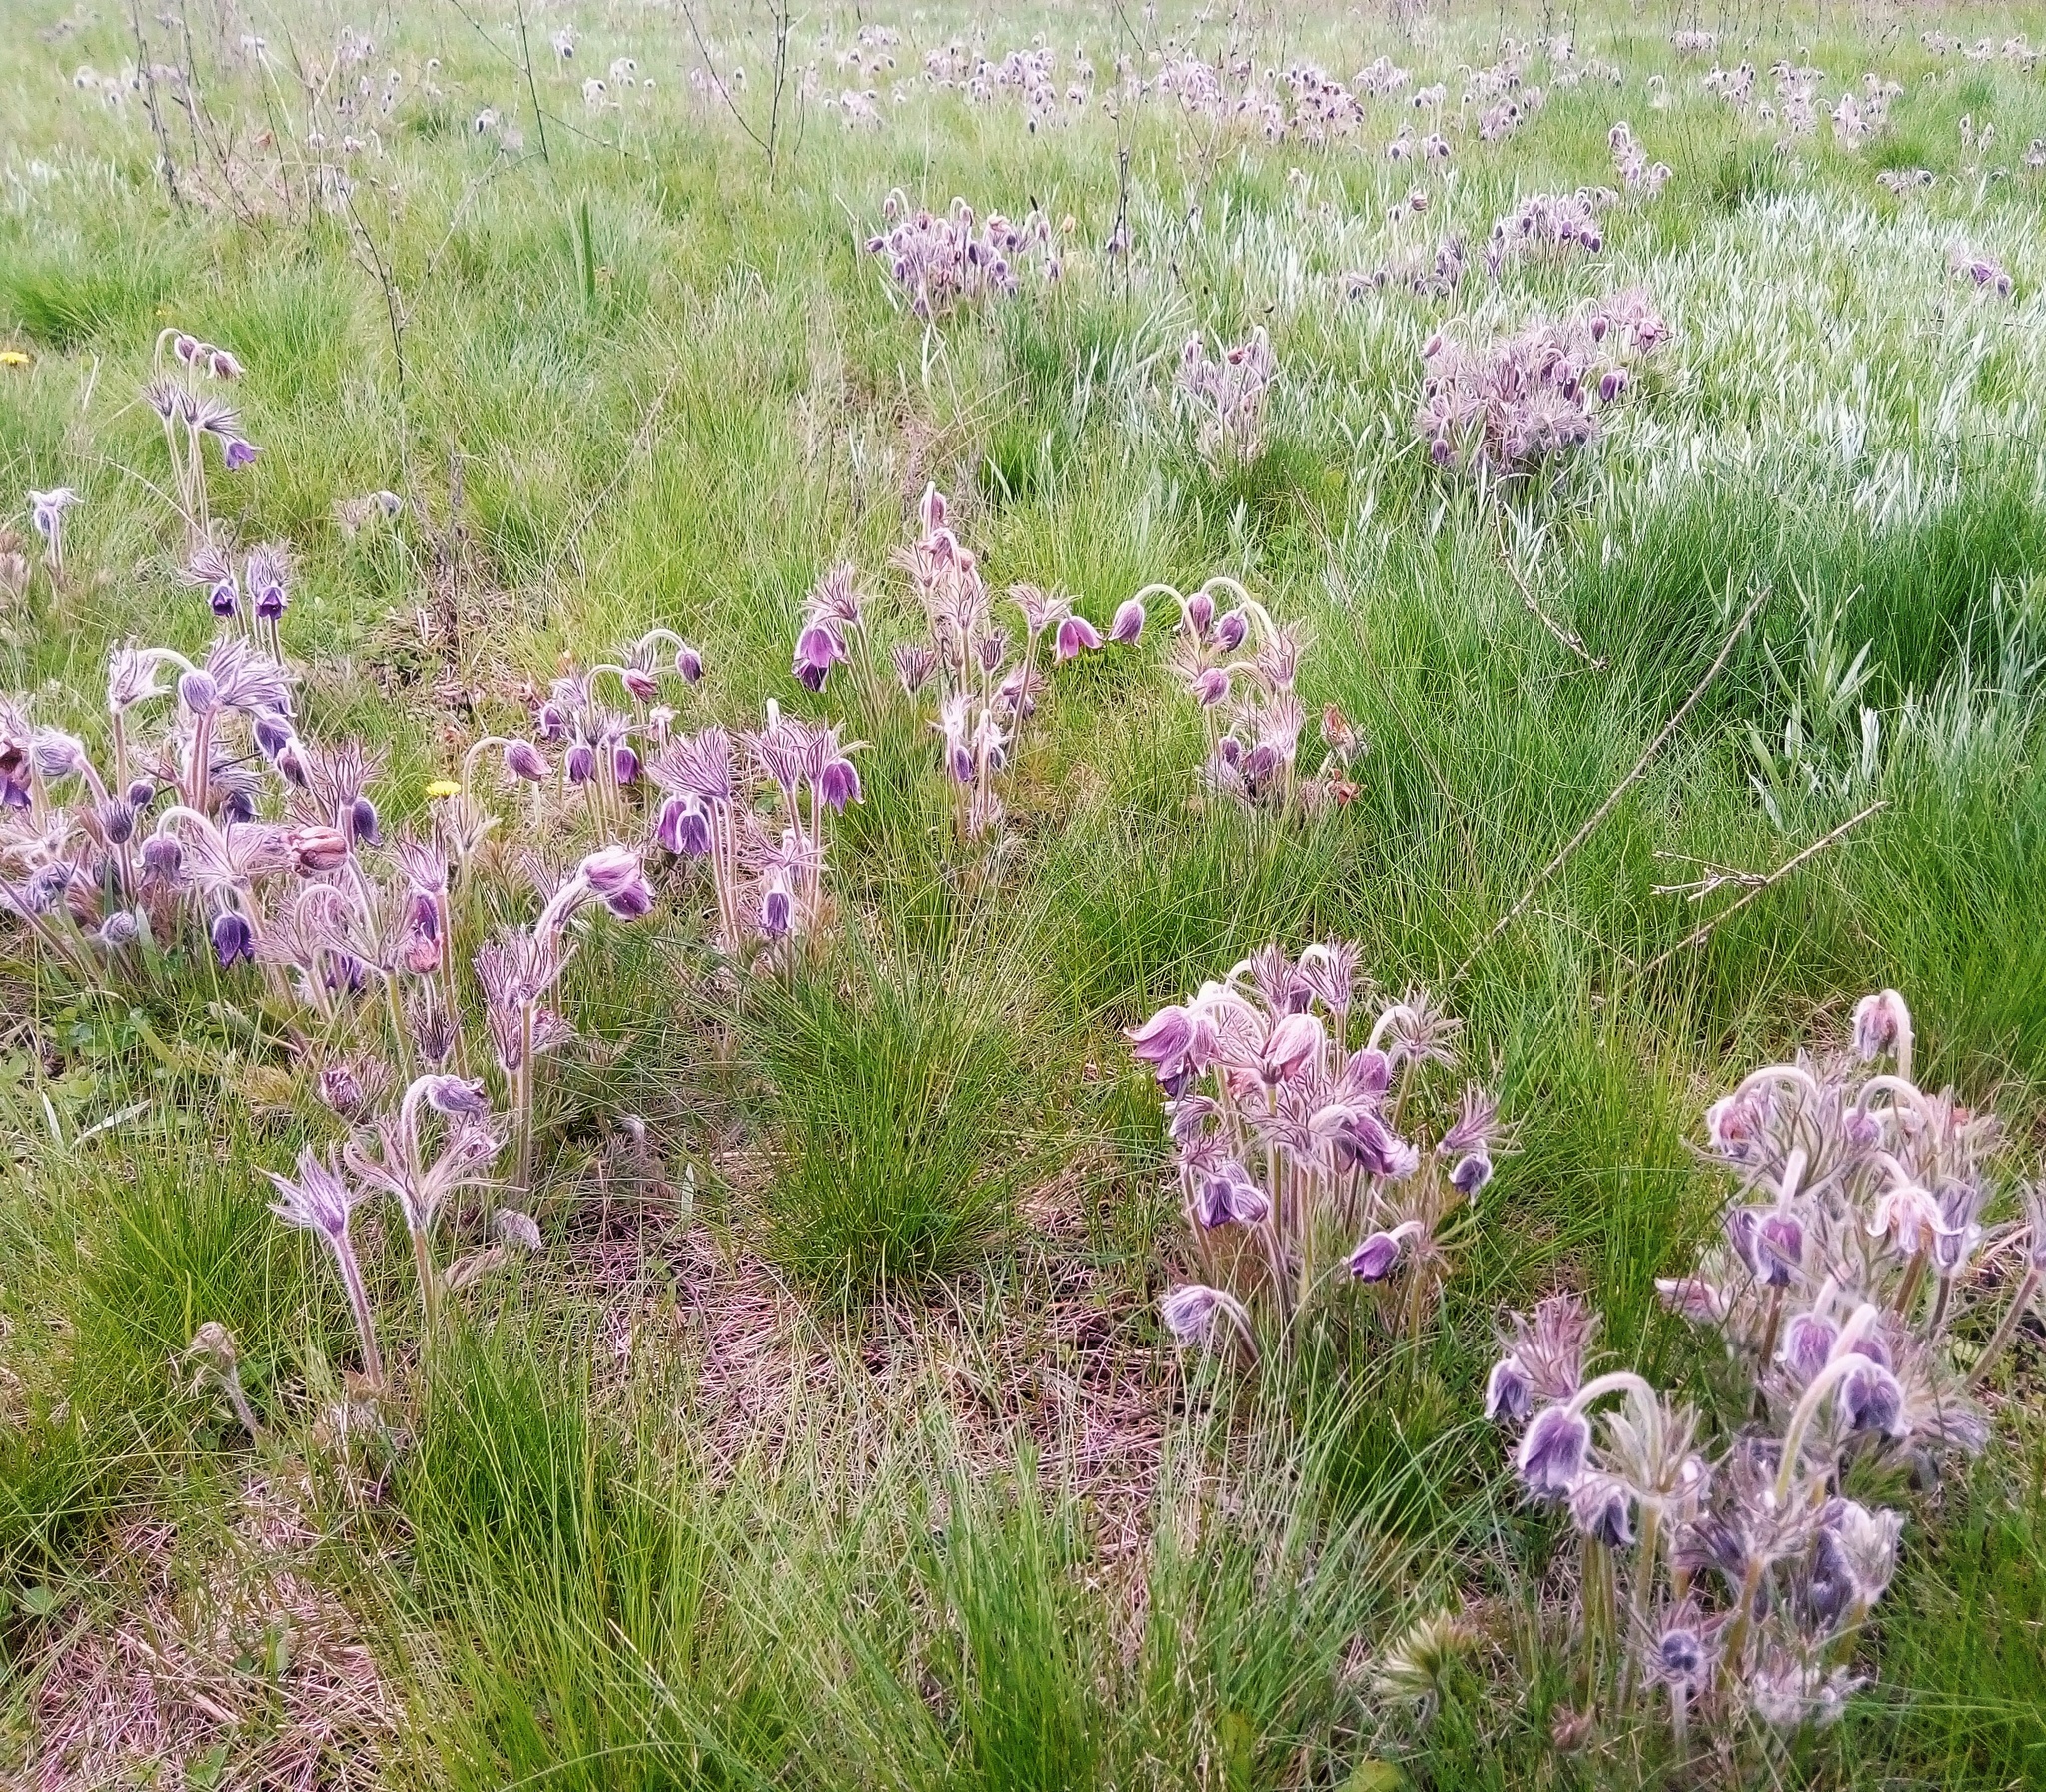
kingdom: Plantae
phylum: Tracheophyta
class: Magnoliopsida
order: Ranunculales
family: Ranunculaceae
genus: Pulsatilla
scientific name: Pulsatilla pratensis
